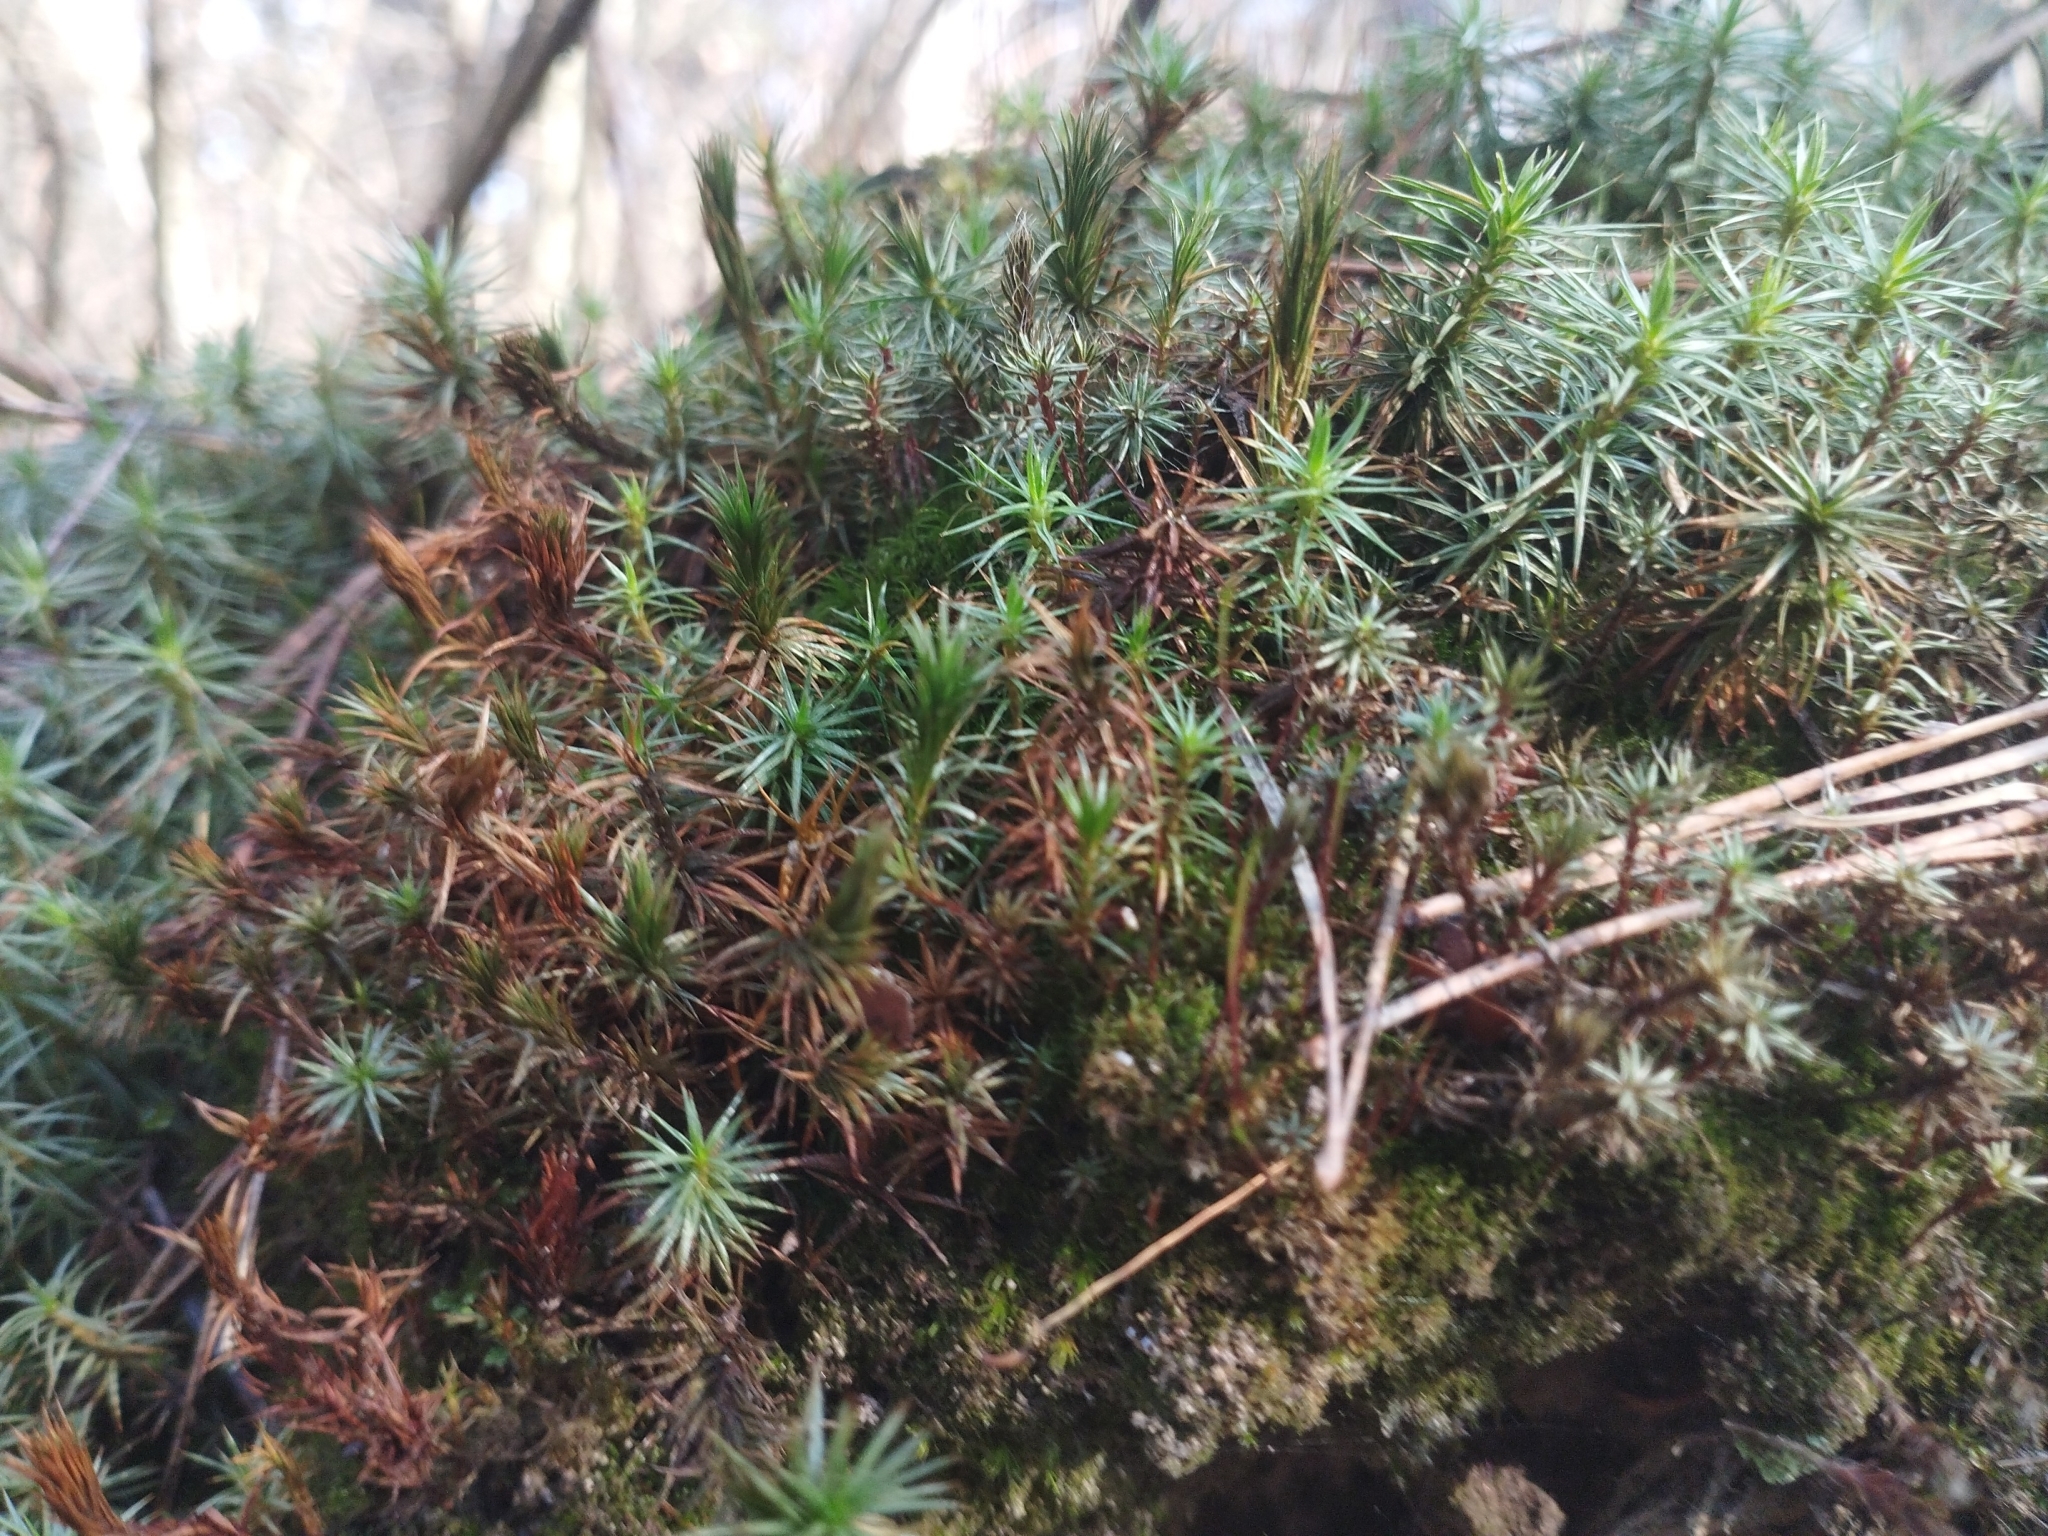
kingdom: Plantae
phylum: Bryophyta
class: Polytrichopsida
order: Polytrichales
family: Polytrichaceae
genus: Polytrichum
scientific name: Polytrichum juniperinum
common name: Juniper haircap moss
